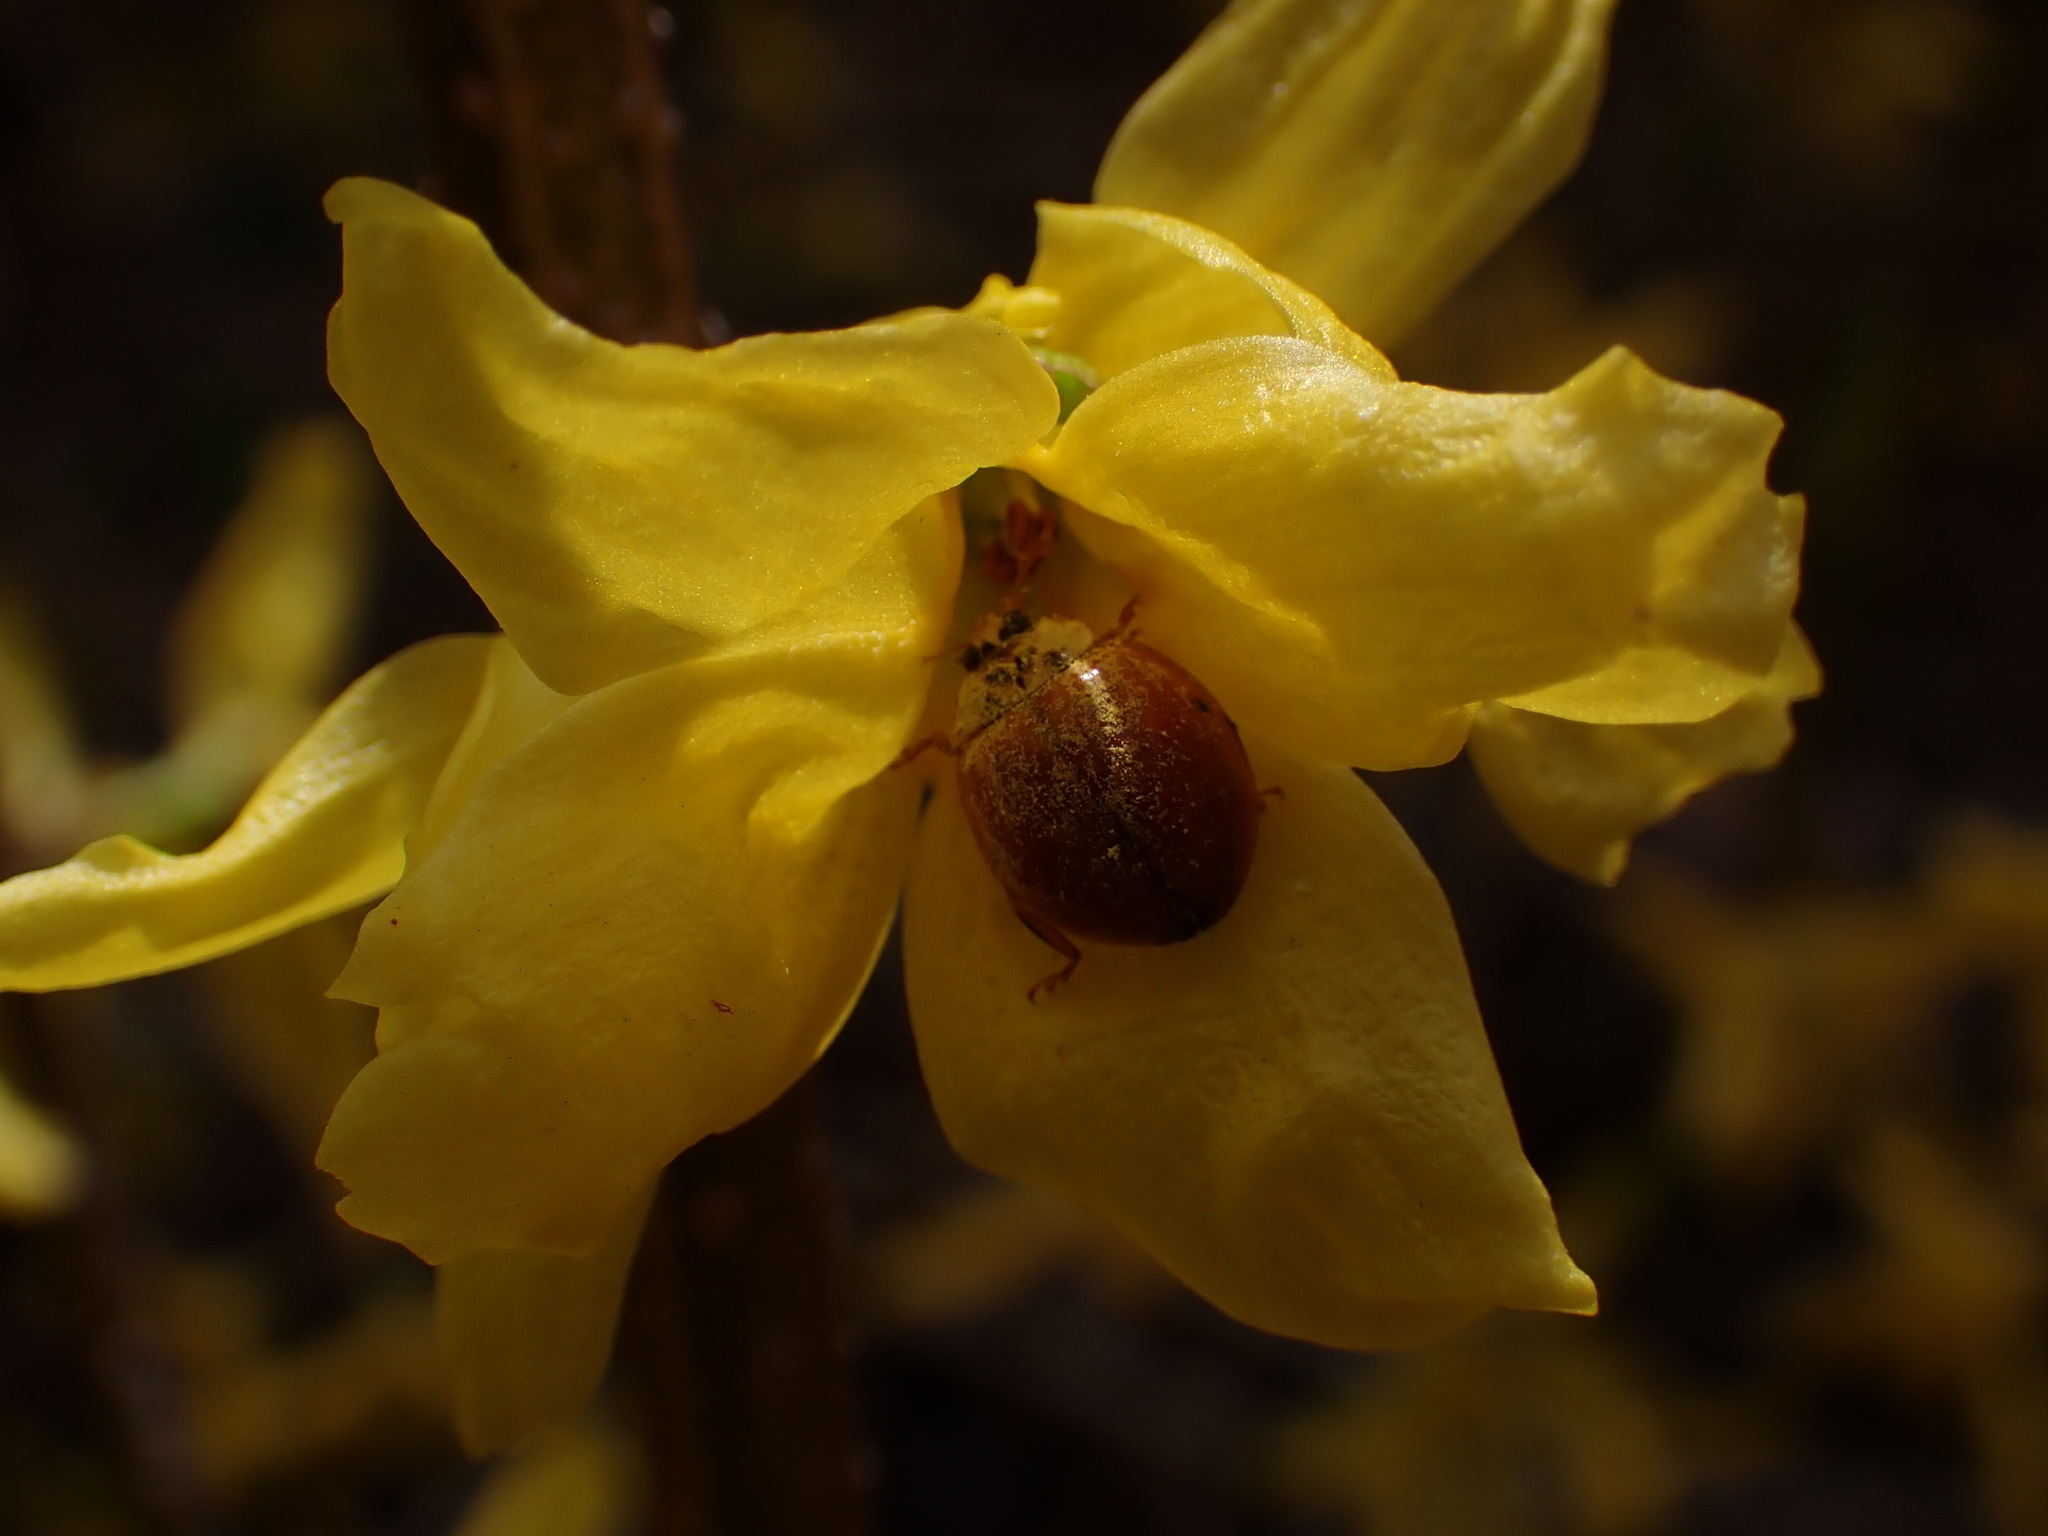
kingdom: Animalia
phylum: Arthropoda
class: Insecta
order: Coleoptera
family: Coccinellidae
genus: Harmonia
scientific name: Harmonia axyridis
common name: Harlequin ladybird
